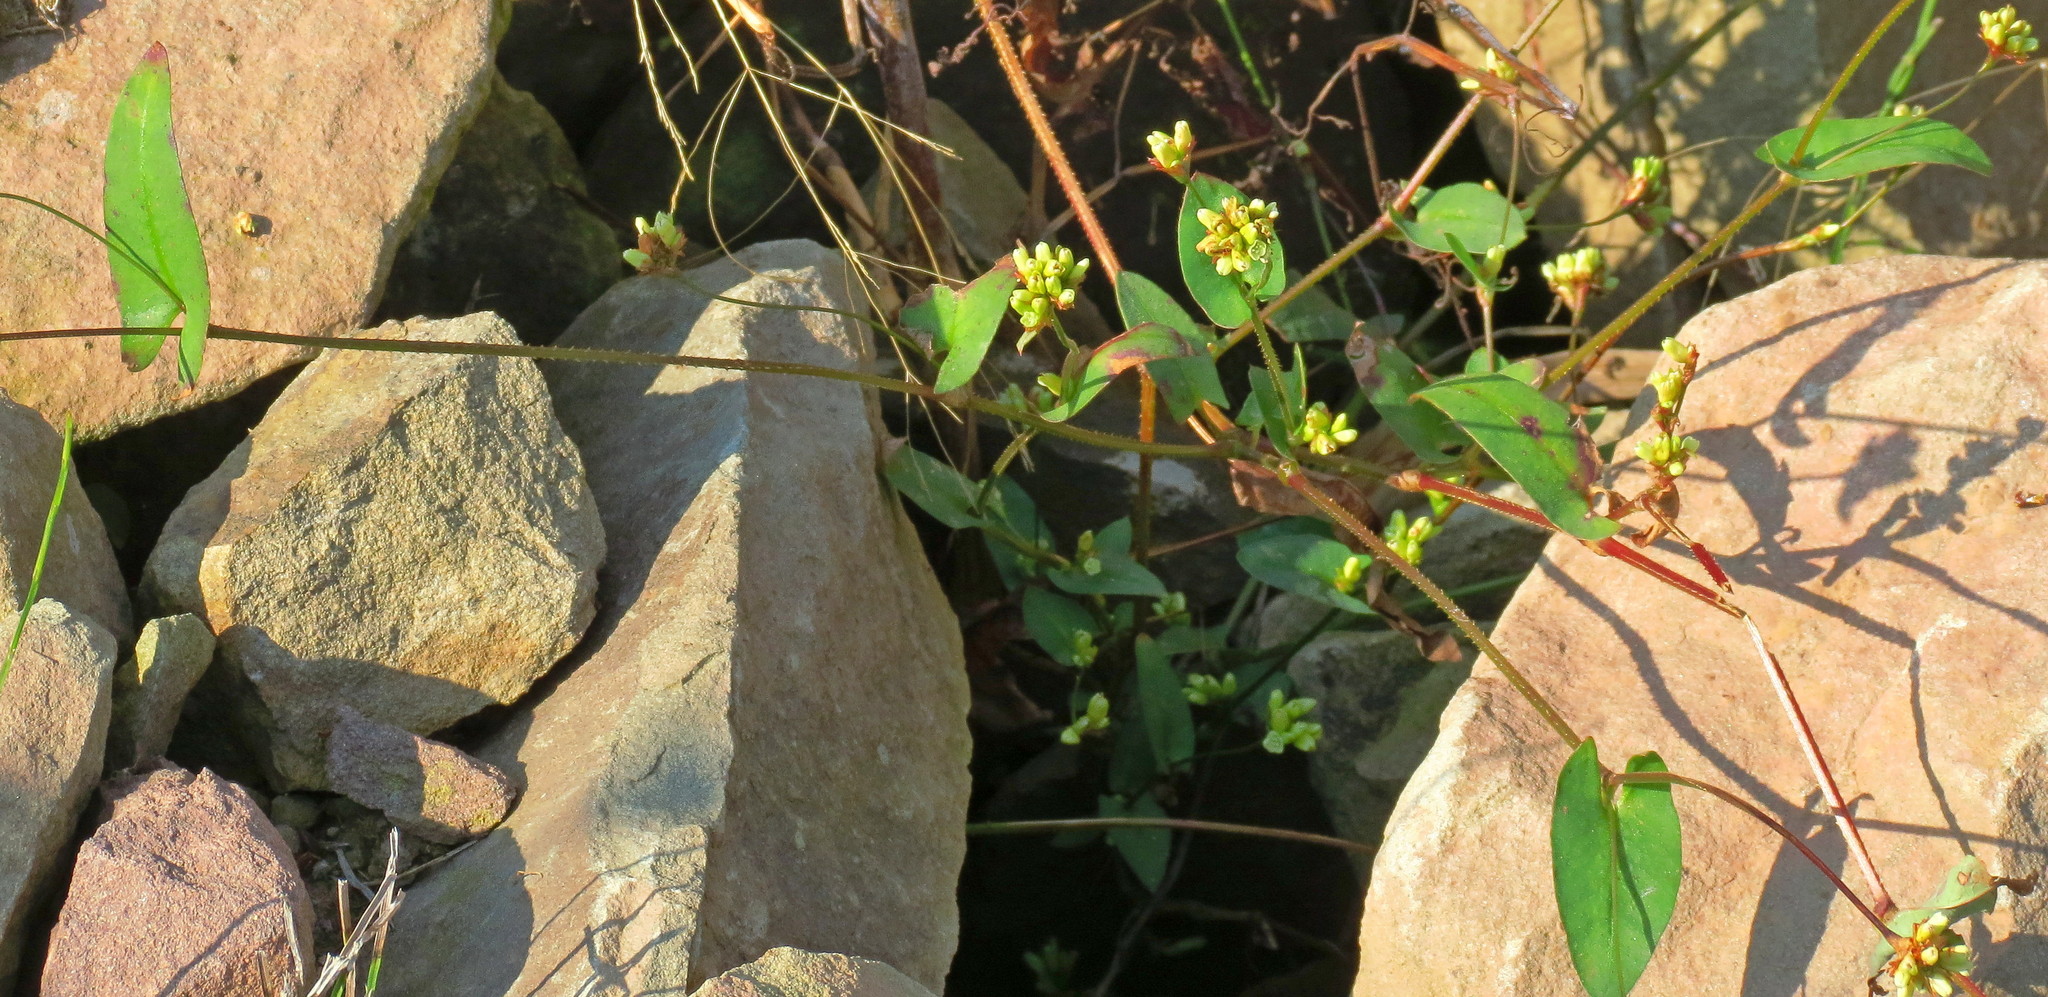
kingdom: Plantae
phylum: Tracheophyta
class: Magnoliopsida
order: Caryophyllales
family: Polygonaceae
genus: Persicaria
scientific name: Persicaria sagittata
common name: American tearthumb
